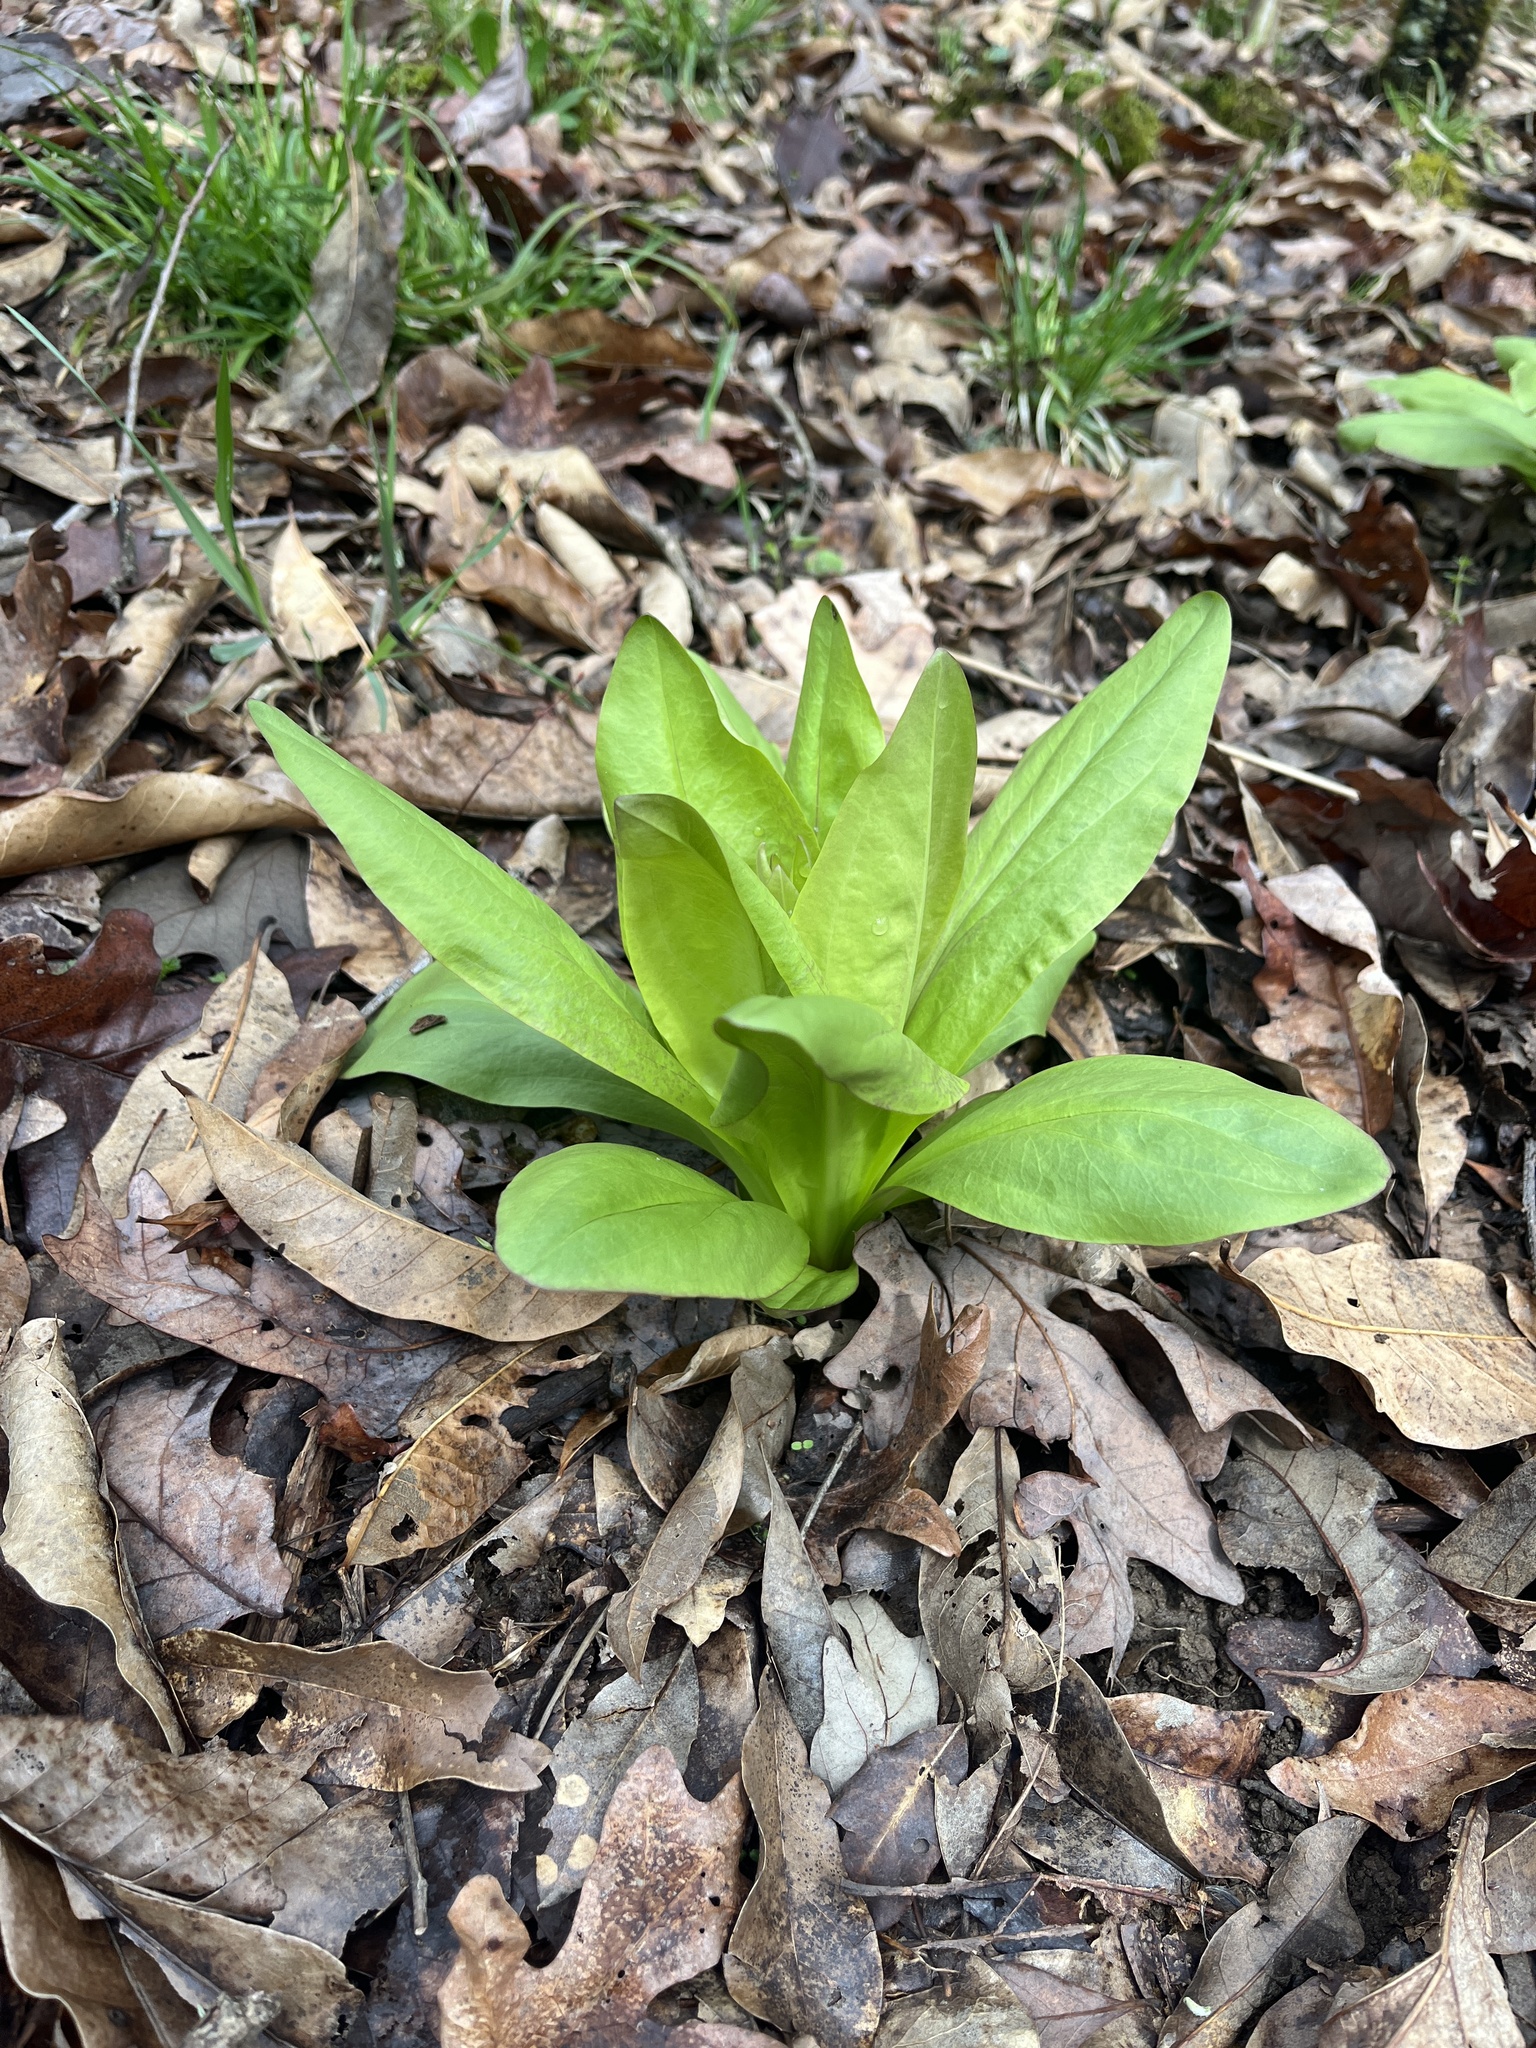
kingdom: Plantae
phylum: Tracheophyta
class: Magnoliopsida
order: Gentianales
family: Gentianaceae
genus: Frasera
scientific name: Frasera caroliniensis
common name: American columbo
